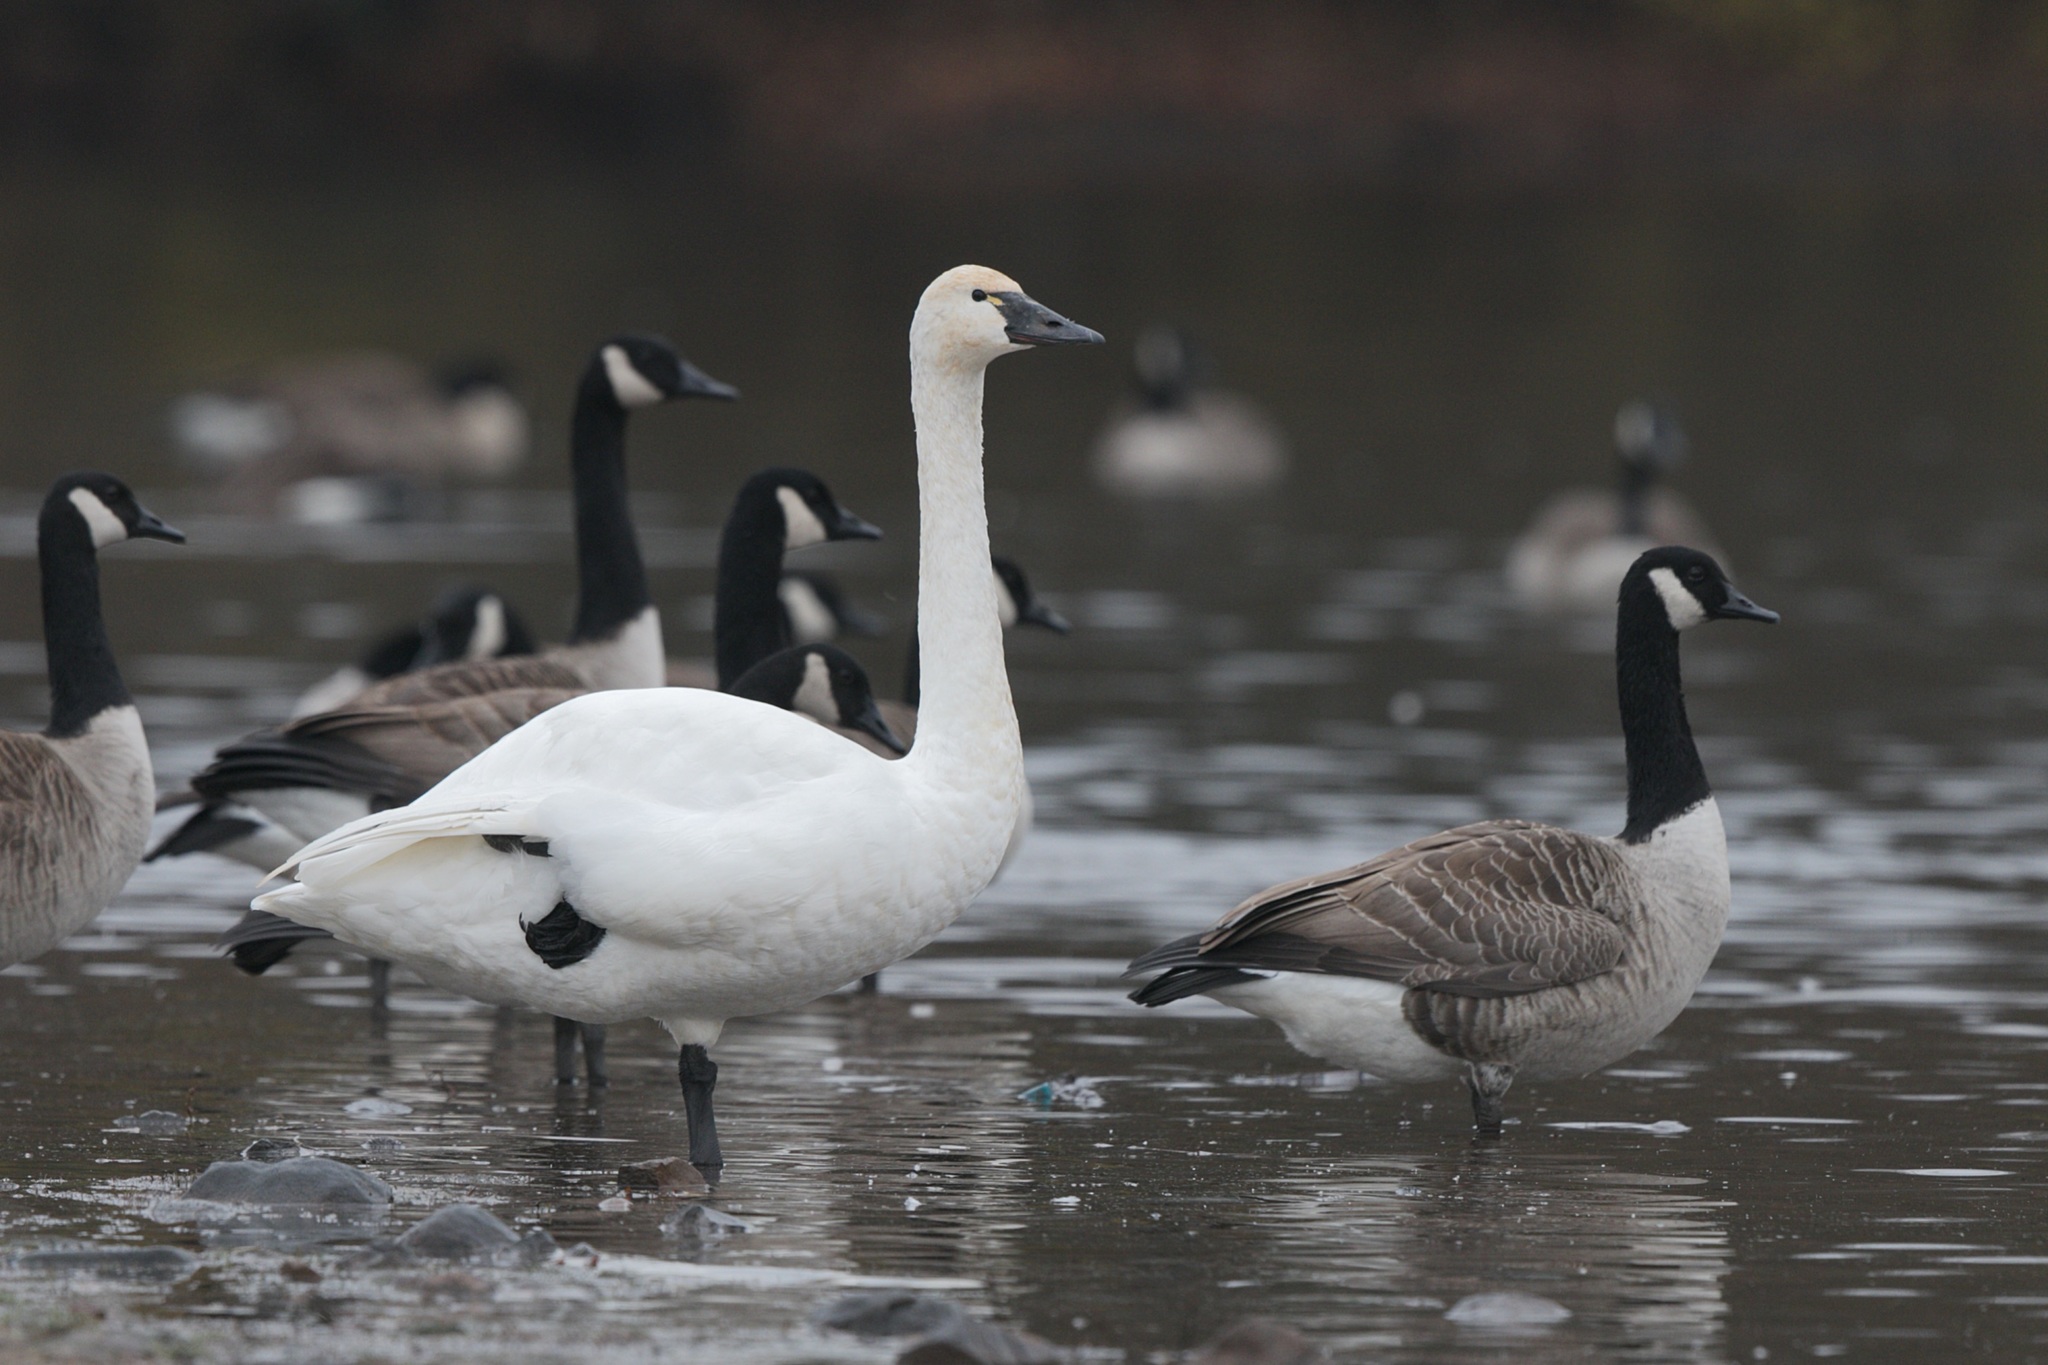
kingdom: Animalia
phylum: Chordata
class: Aves
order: Anseriformes
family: Anatidae
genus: Cygnus
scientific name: Cygnus columbianus
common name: Tundra swan
